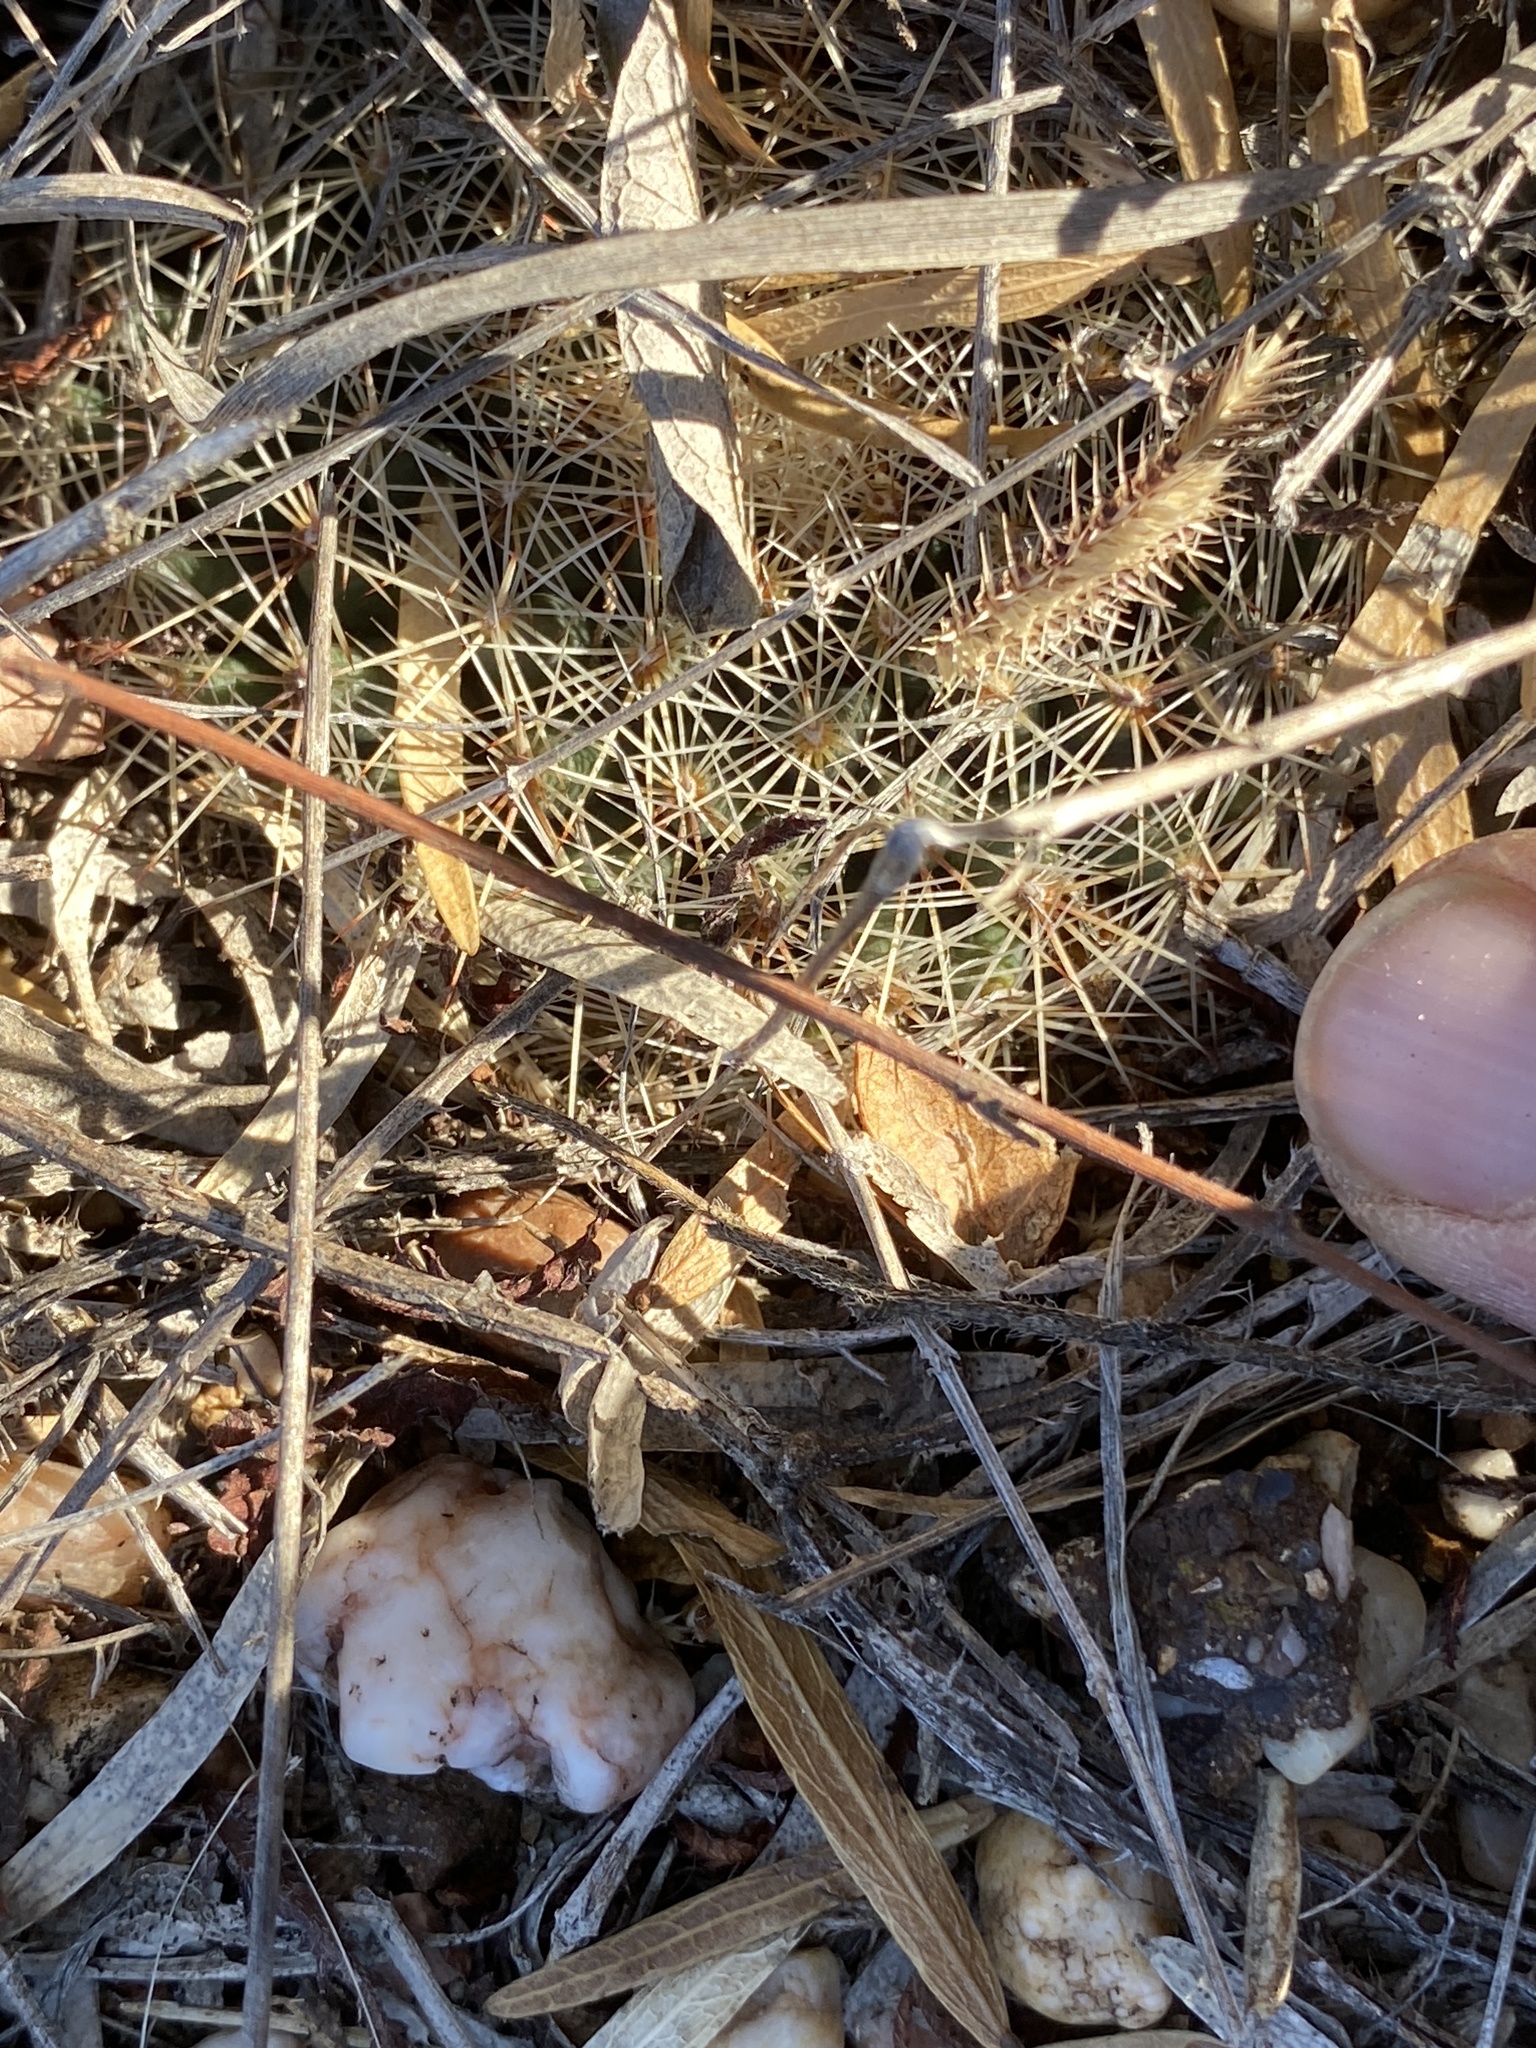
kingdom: Plantae
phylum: Tracheophyta
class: Magnoliopsida
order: Caryophyllales
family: Cactaceae
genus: Mammillaria
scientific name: Mammillaria heyderi
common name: Little nipple cactus
